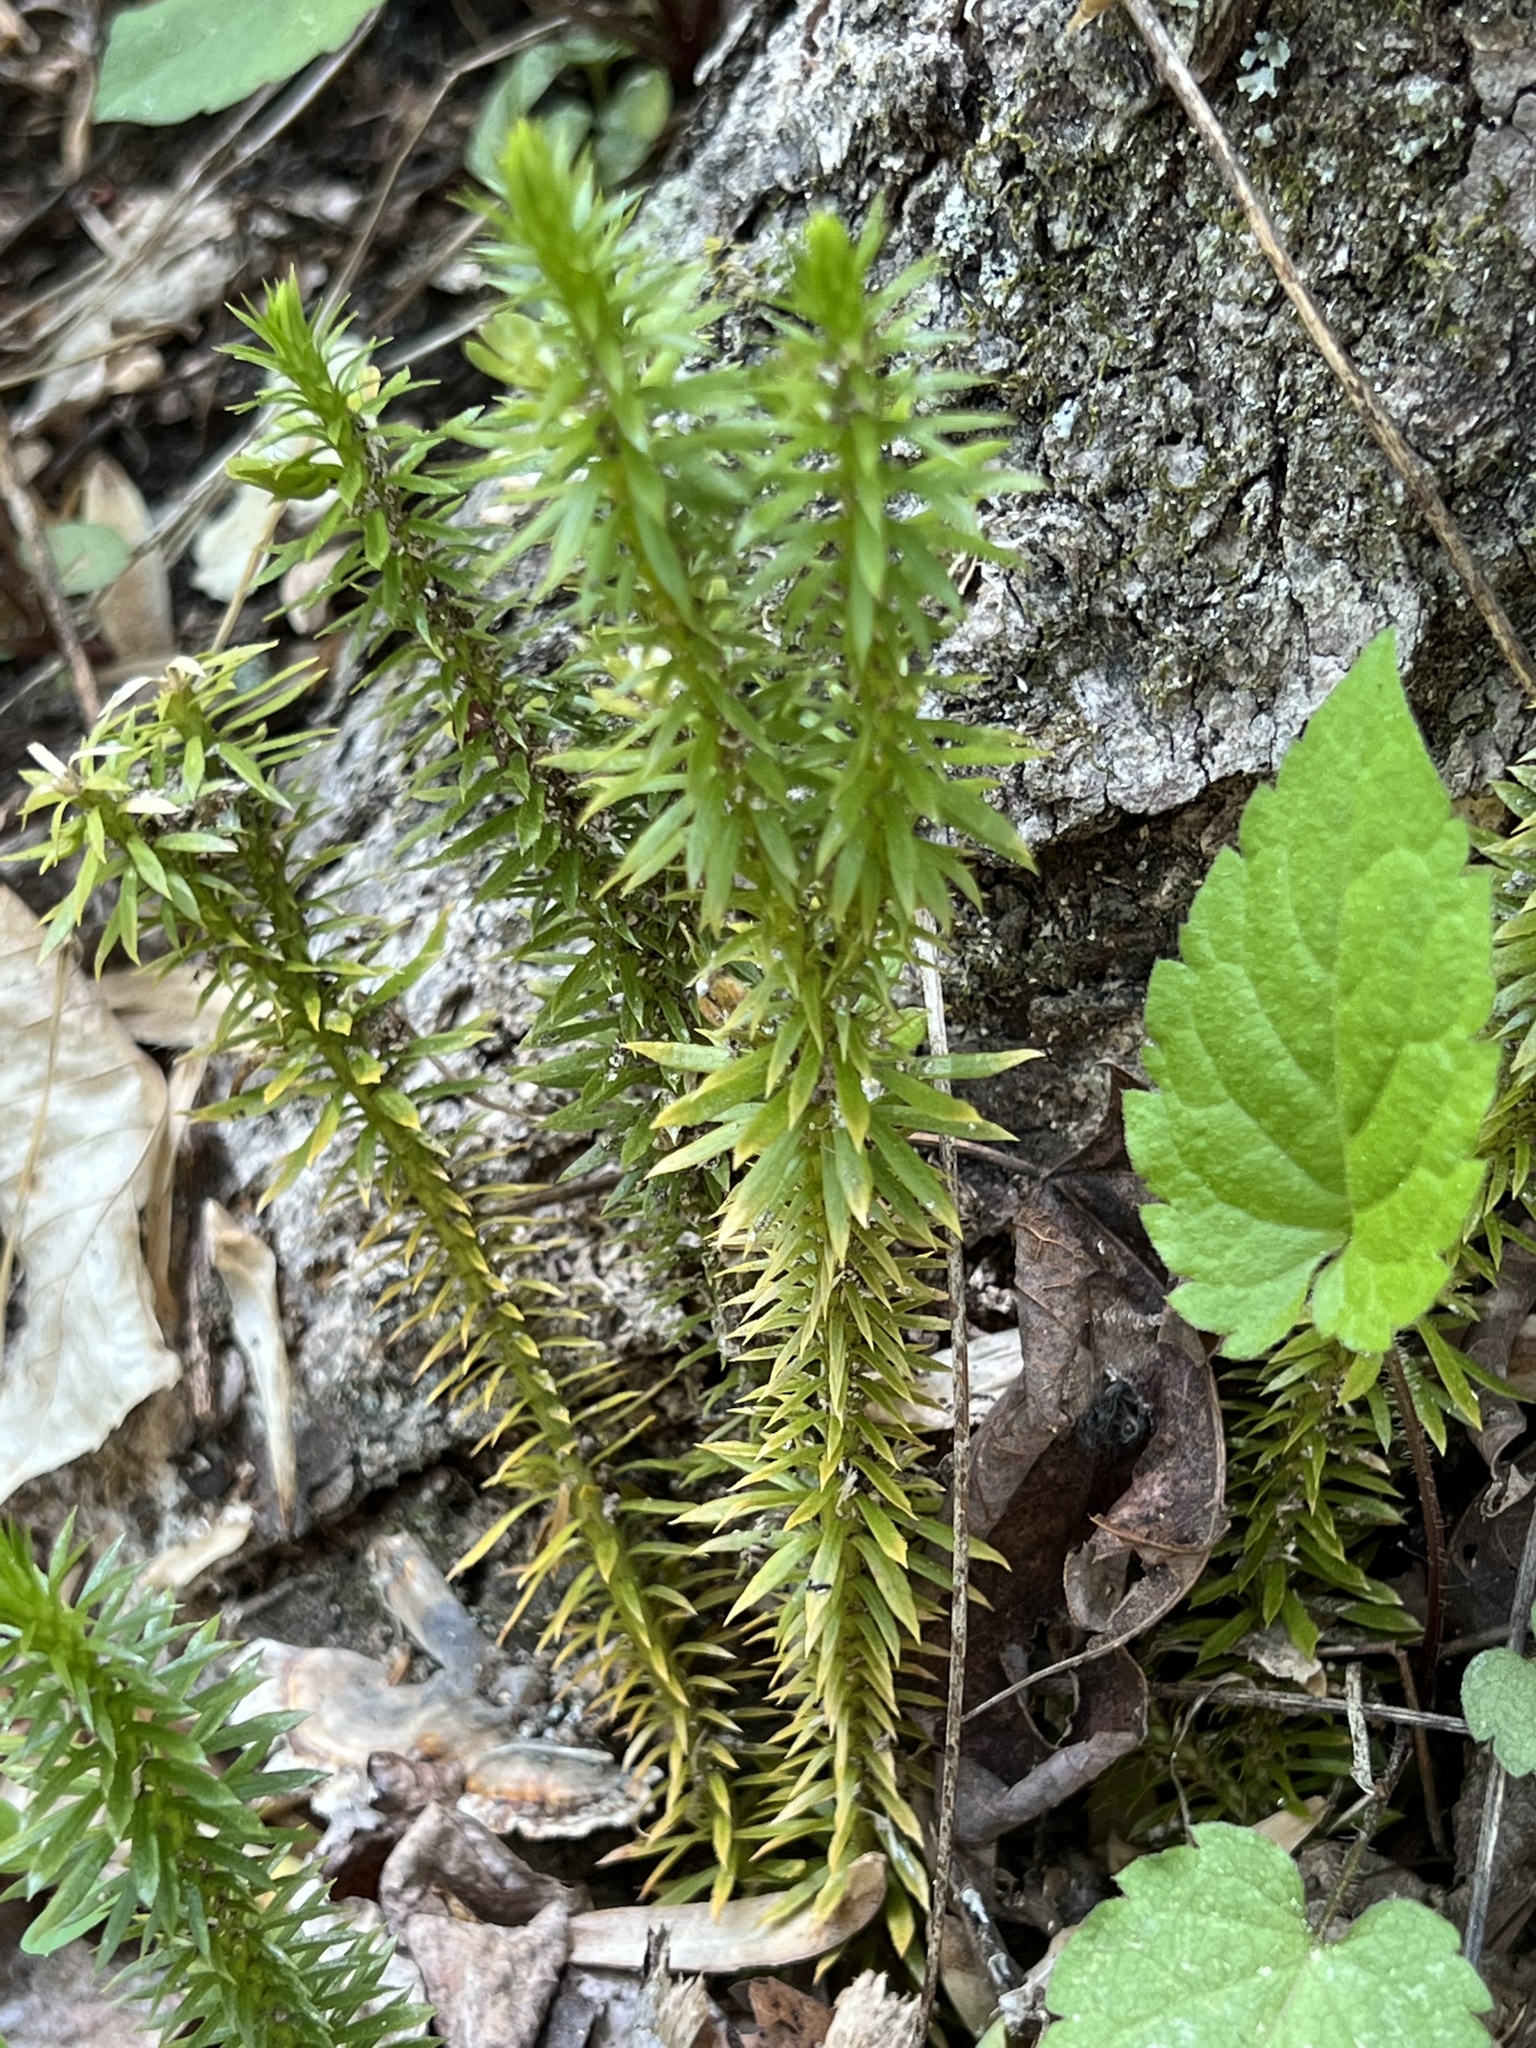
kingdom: Plantae
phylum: Tracheophyta
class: Lycopodiopsida
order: Lycopodiales
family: Lycopodiaceae
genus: Huperzia
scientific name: Huperzia lucidula
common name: Shining clubmoss
